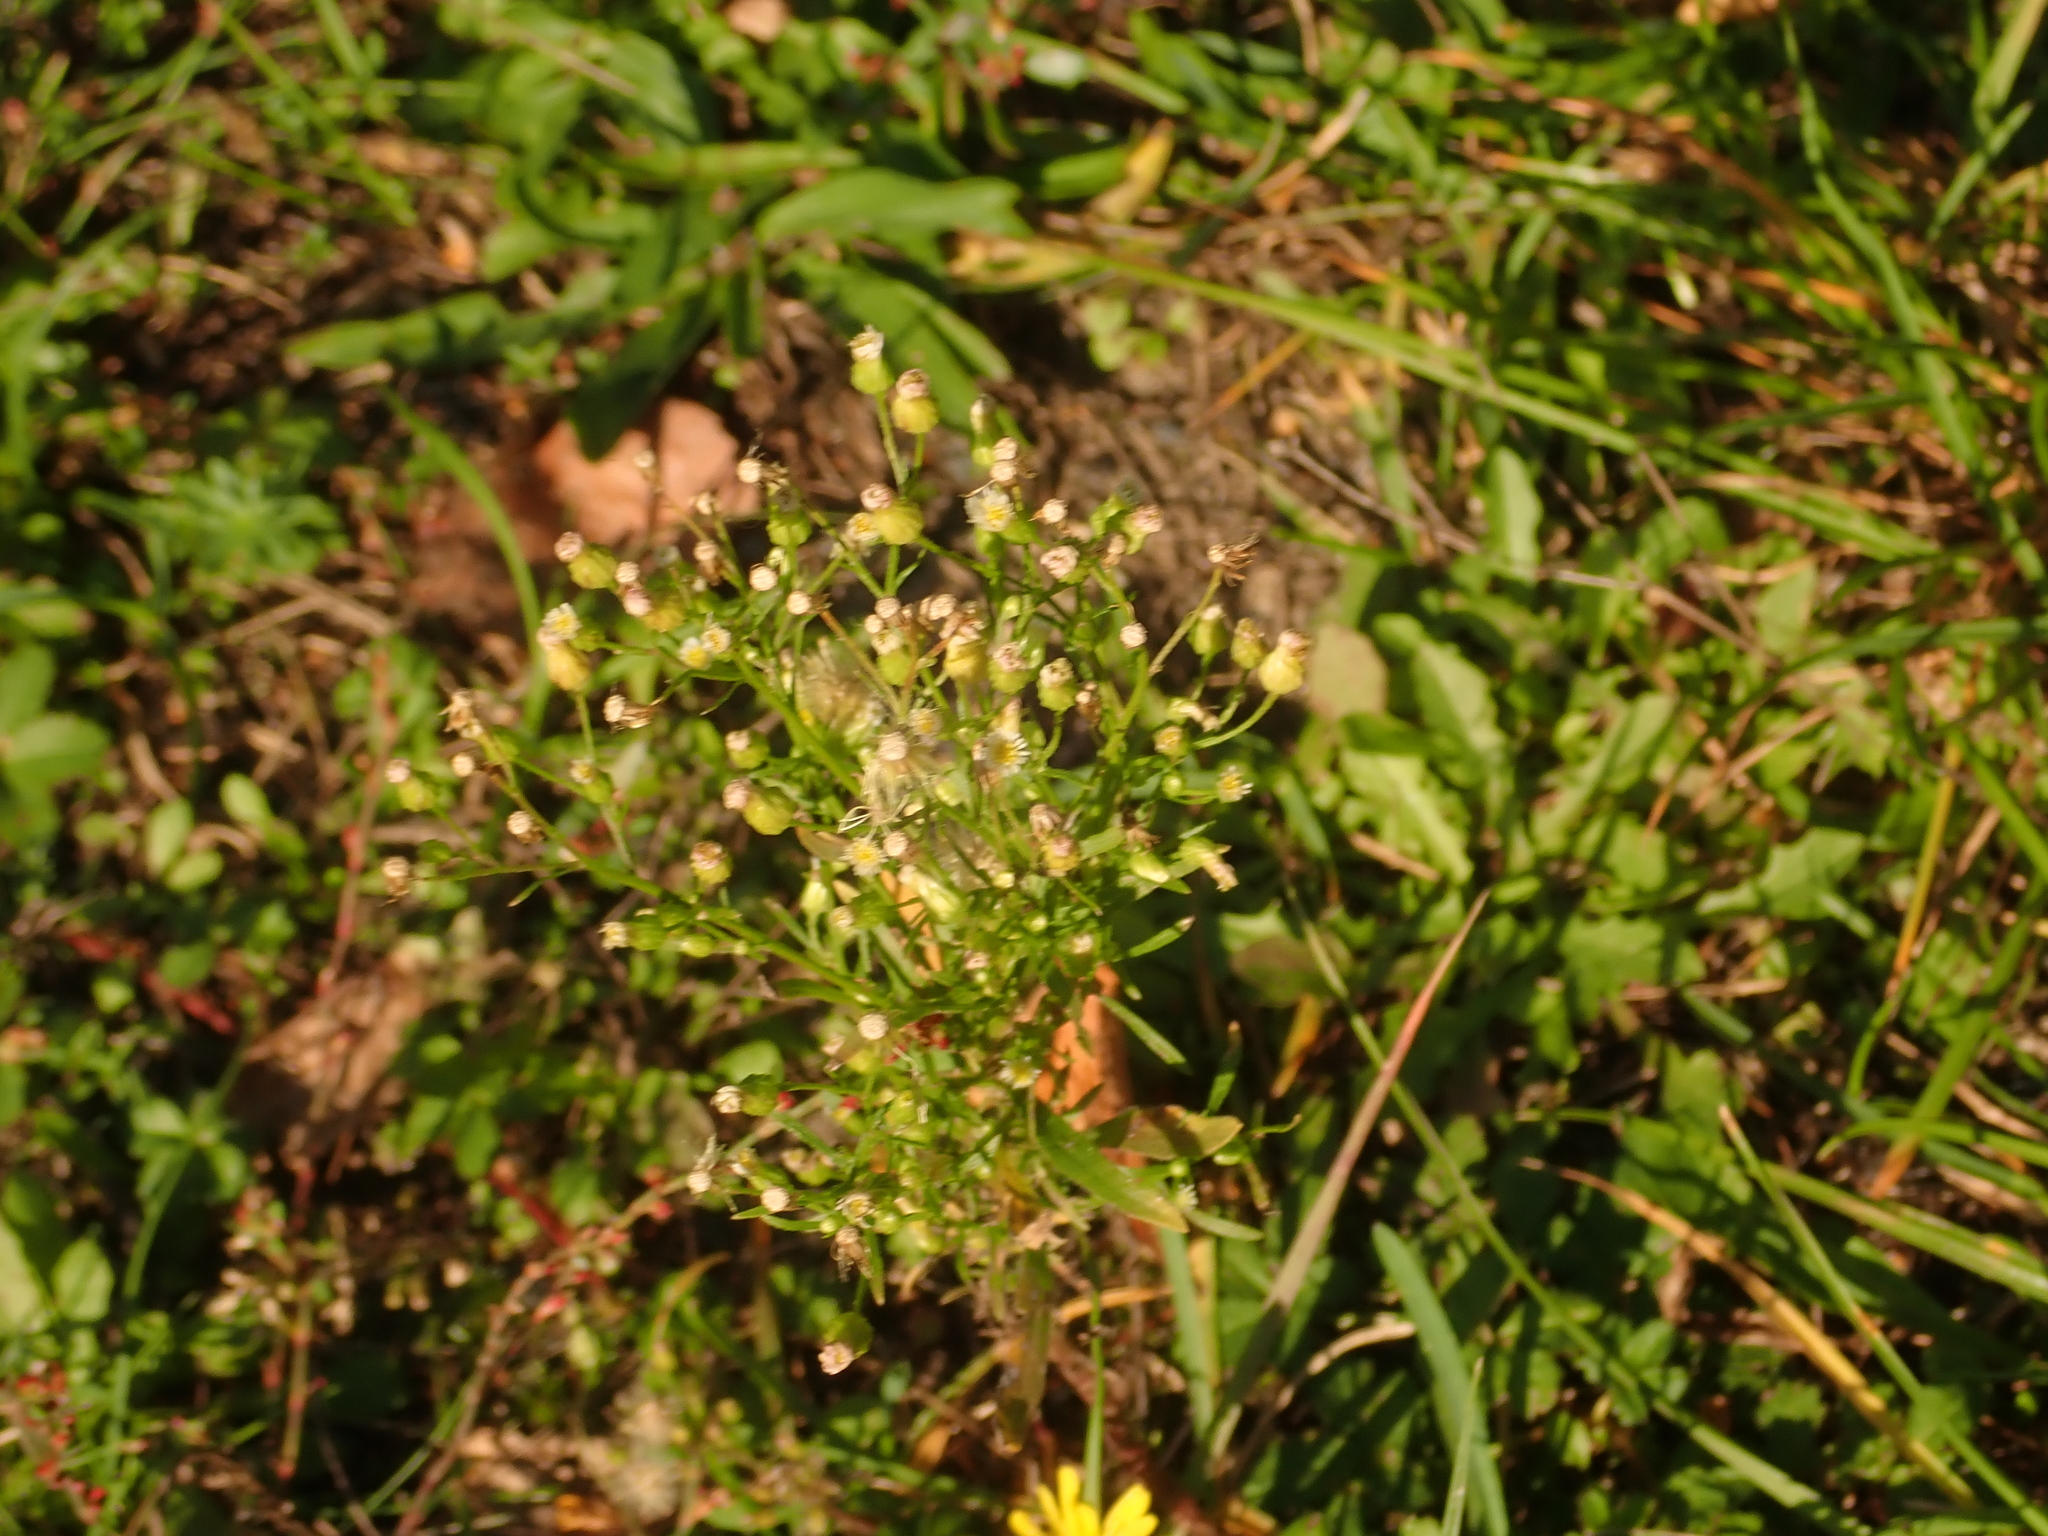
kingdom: Plantae
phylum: Tracheophyta
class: Magnoliopsida
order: Asterales
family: Asteraceae
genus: Erigeron
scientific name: Erigeron canadensis
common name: Canadian fleabane
